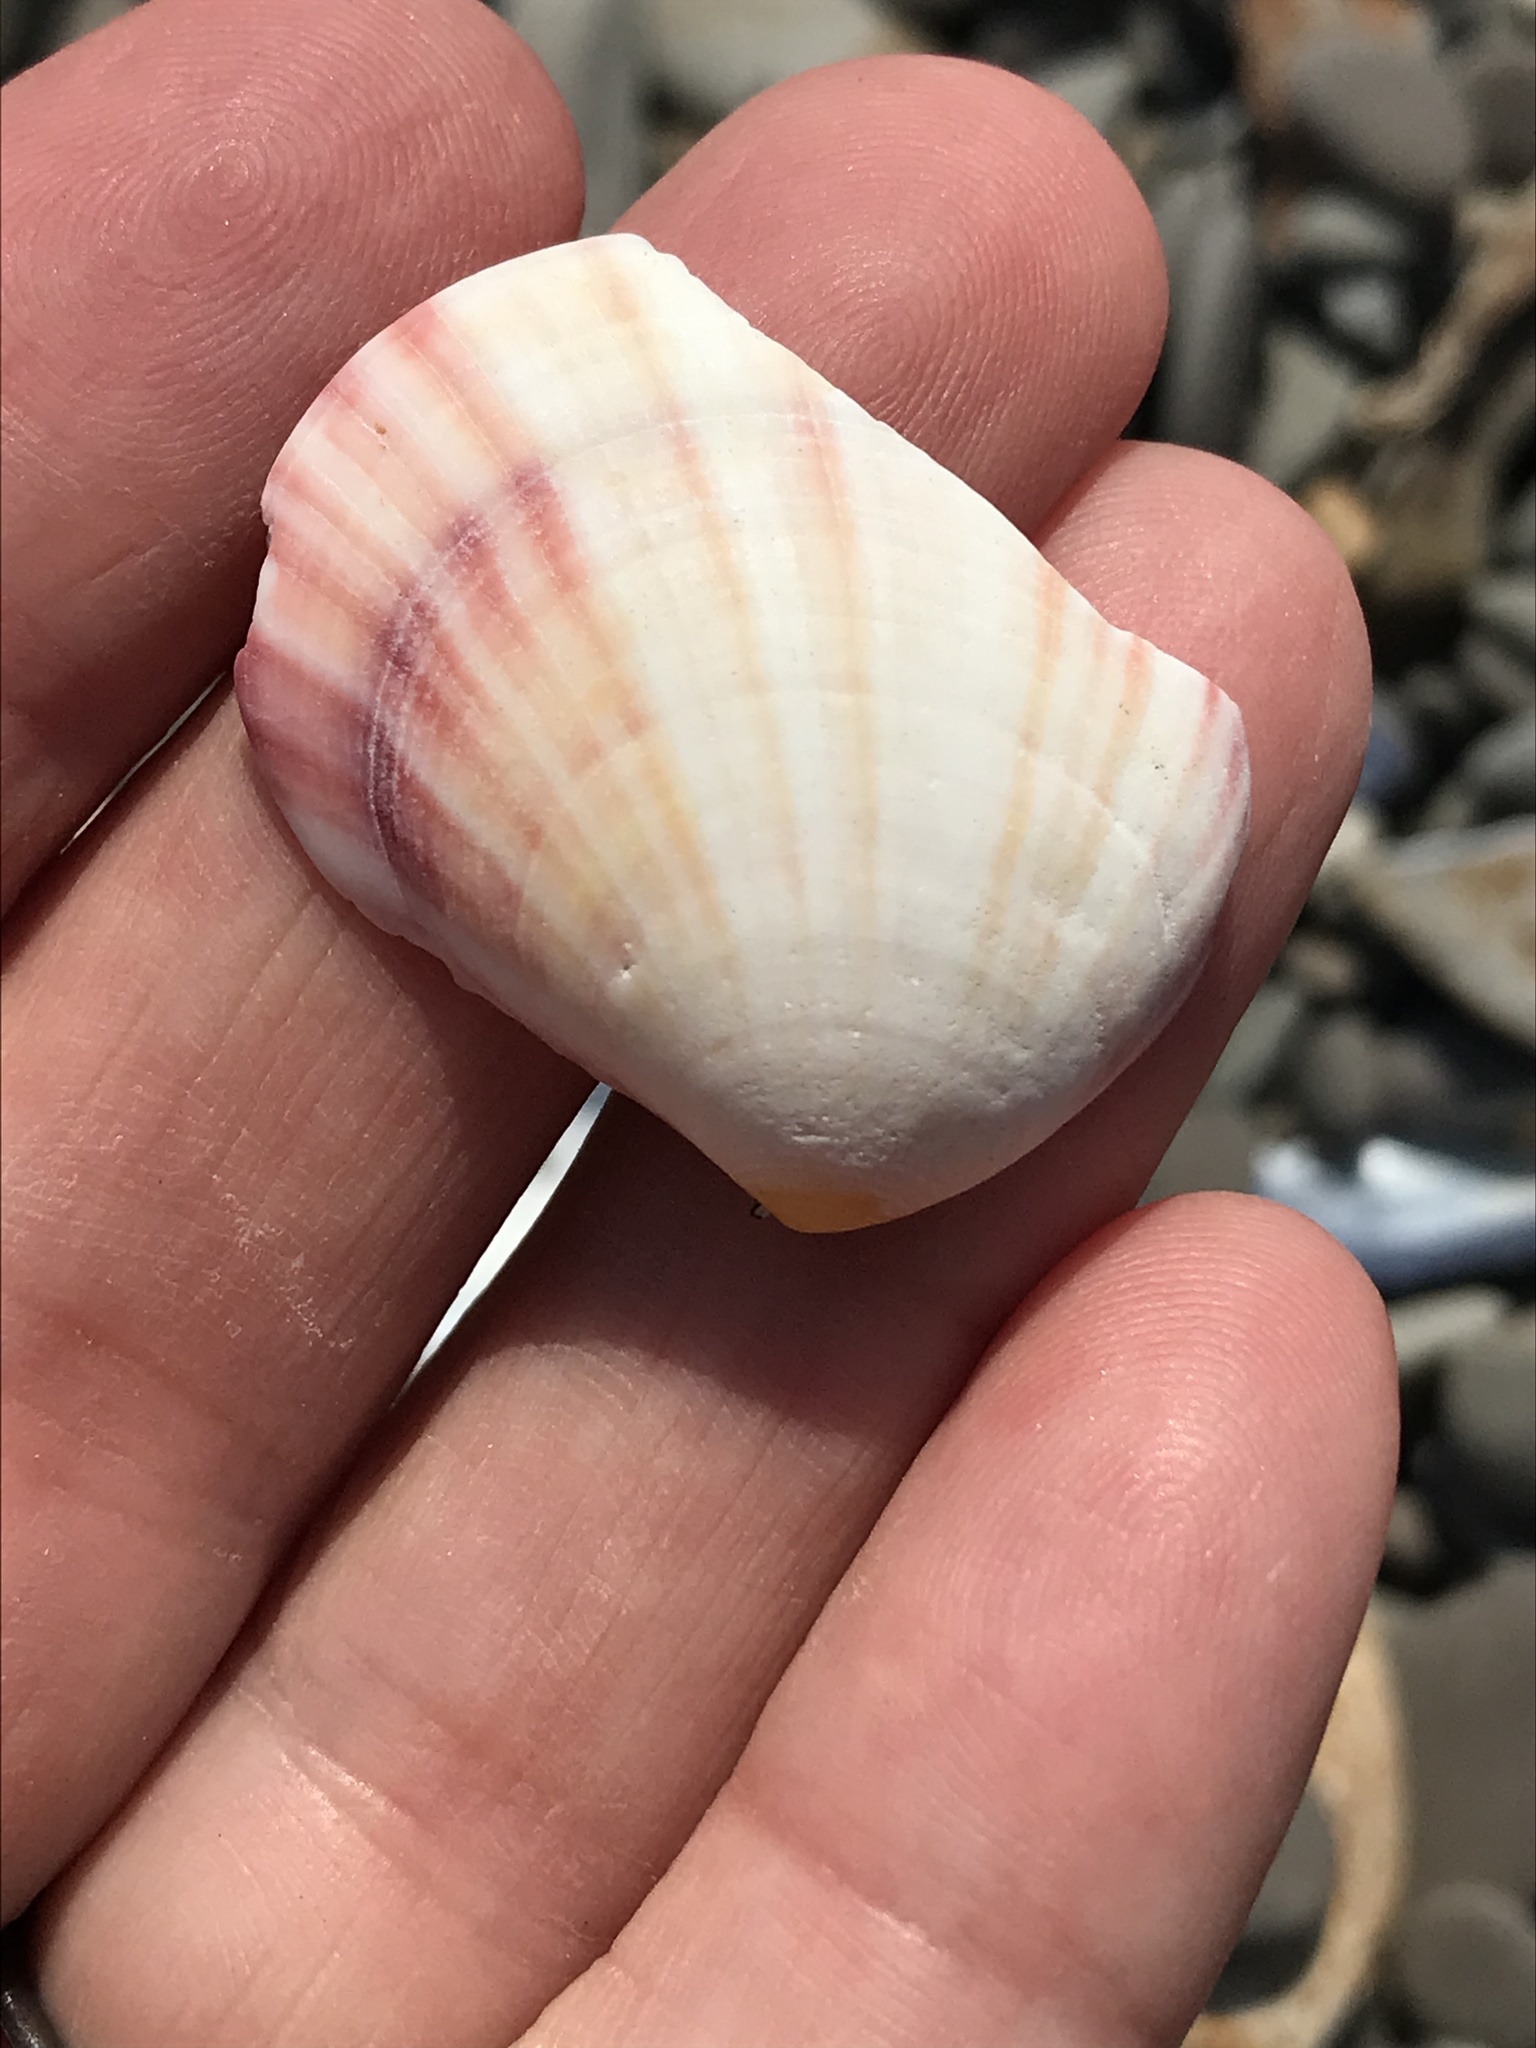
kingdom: Animalia
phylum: Mollusca
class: Bivalvia
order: Cardiida
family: Semelidae
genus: Semele
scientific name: Semele rubropicta
